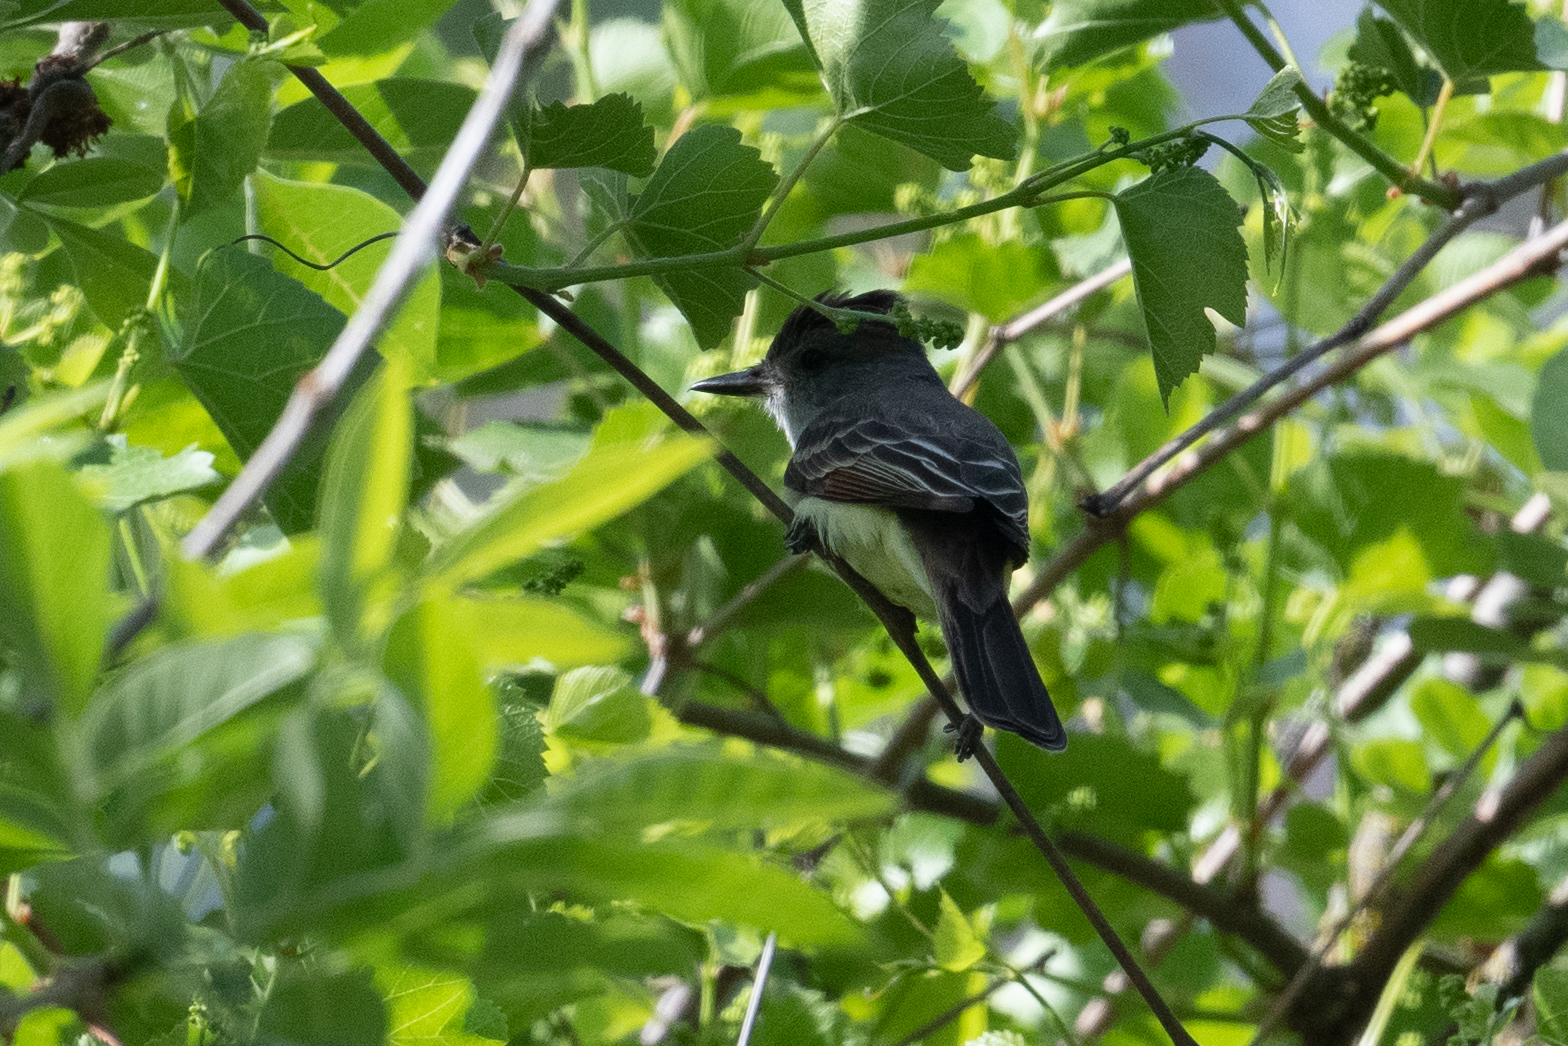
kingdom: Animalia
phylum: Chordata
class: Aves
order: Passeriformes
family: Tyrannidae
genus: Myiarchus
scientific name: Myiarchus cinerascens
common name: Ash-throated flycatcher
